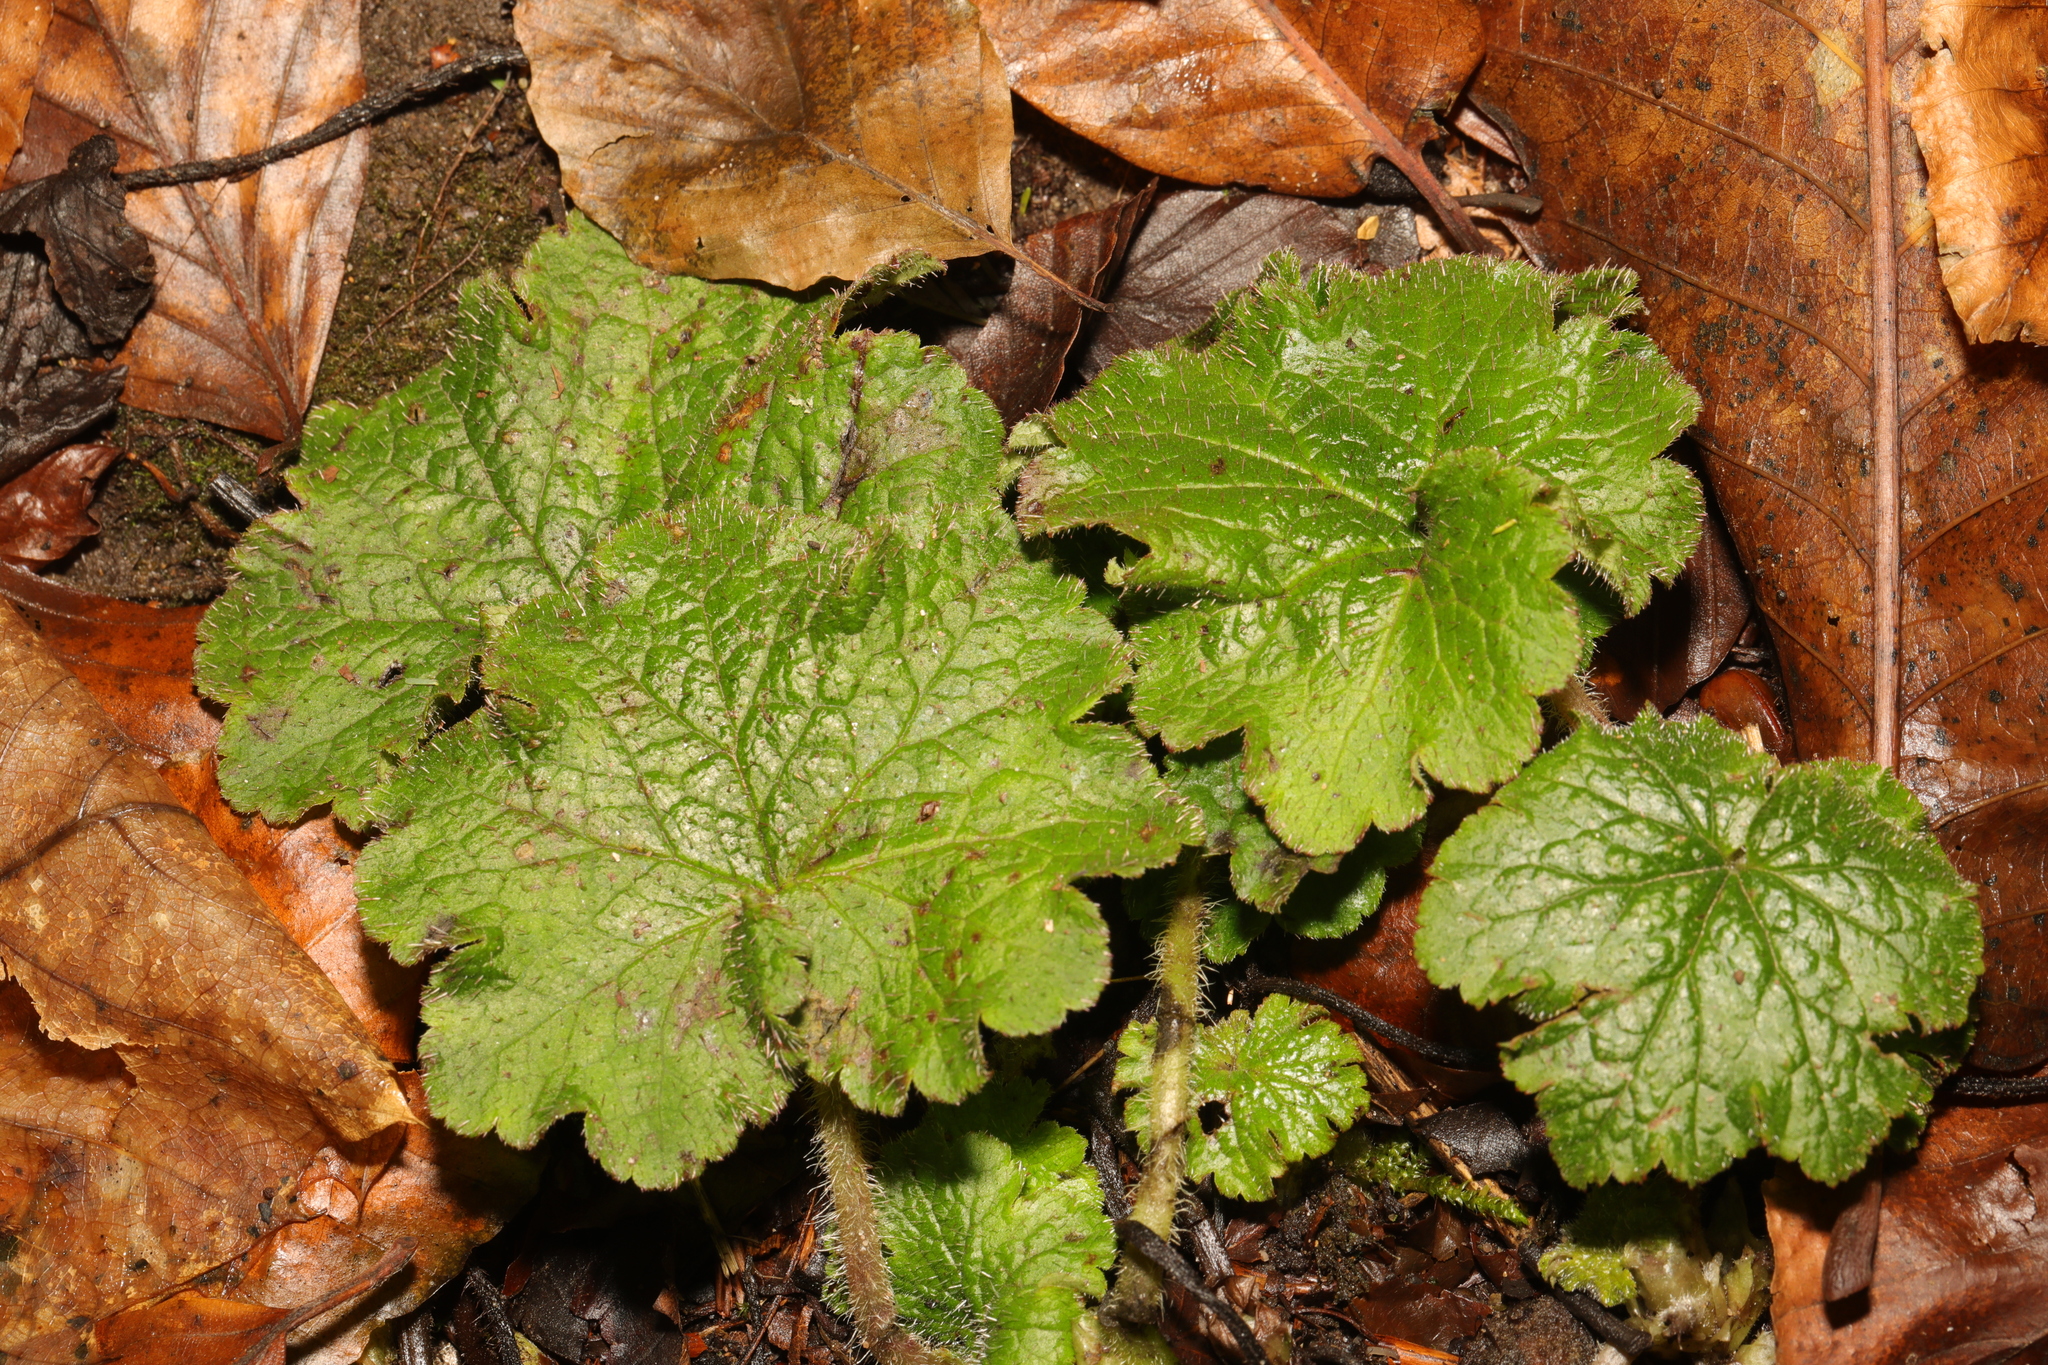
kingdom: Plantae
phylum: Tracheophyta
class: Magnoliopsida
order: Saxifragales
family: Saxifragaceae
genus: Tellima
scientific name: Tellima grandiflora
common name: Fringecups
